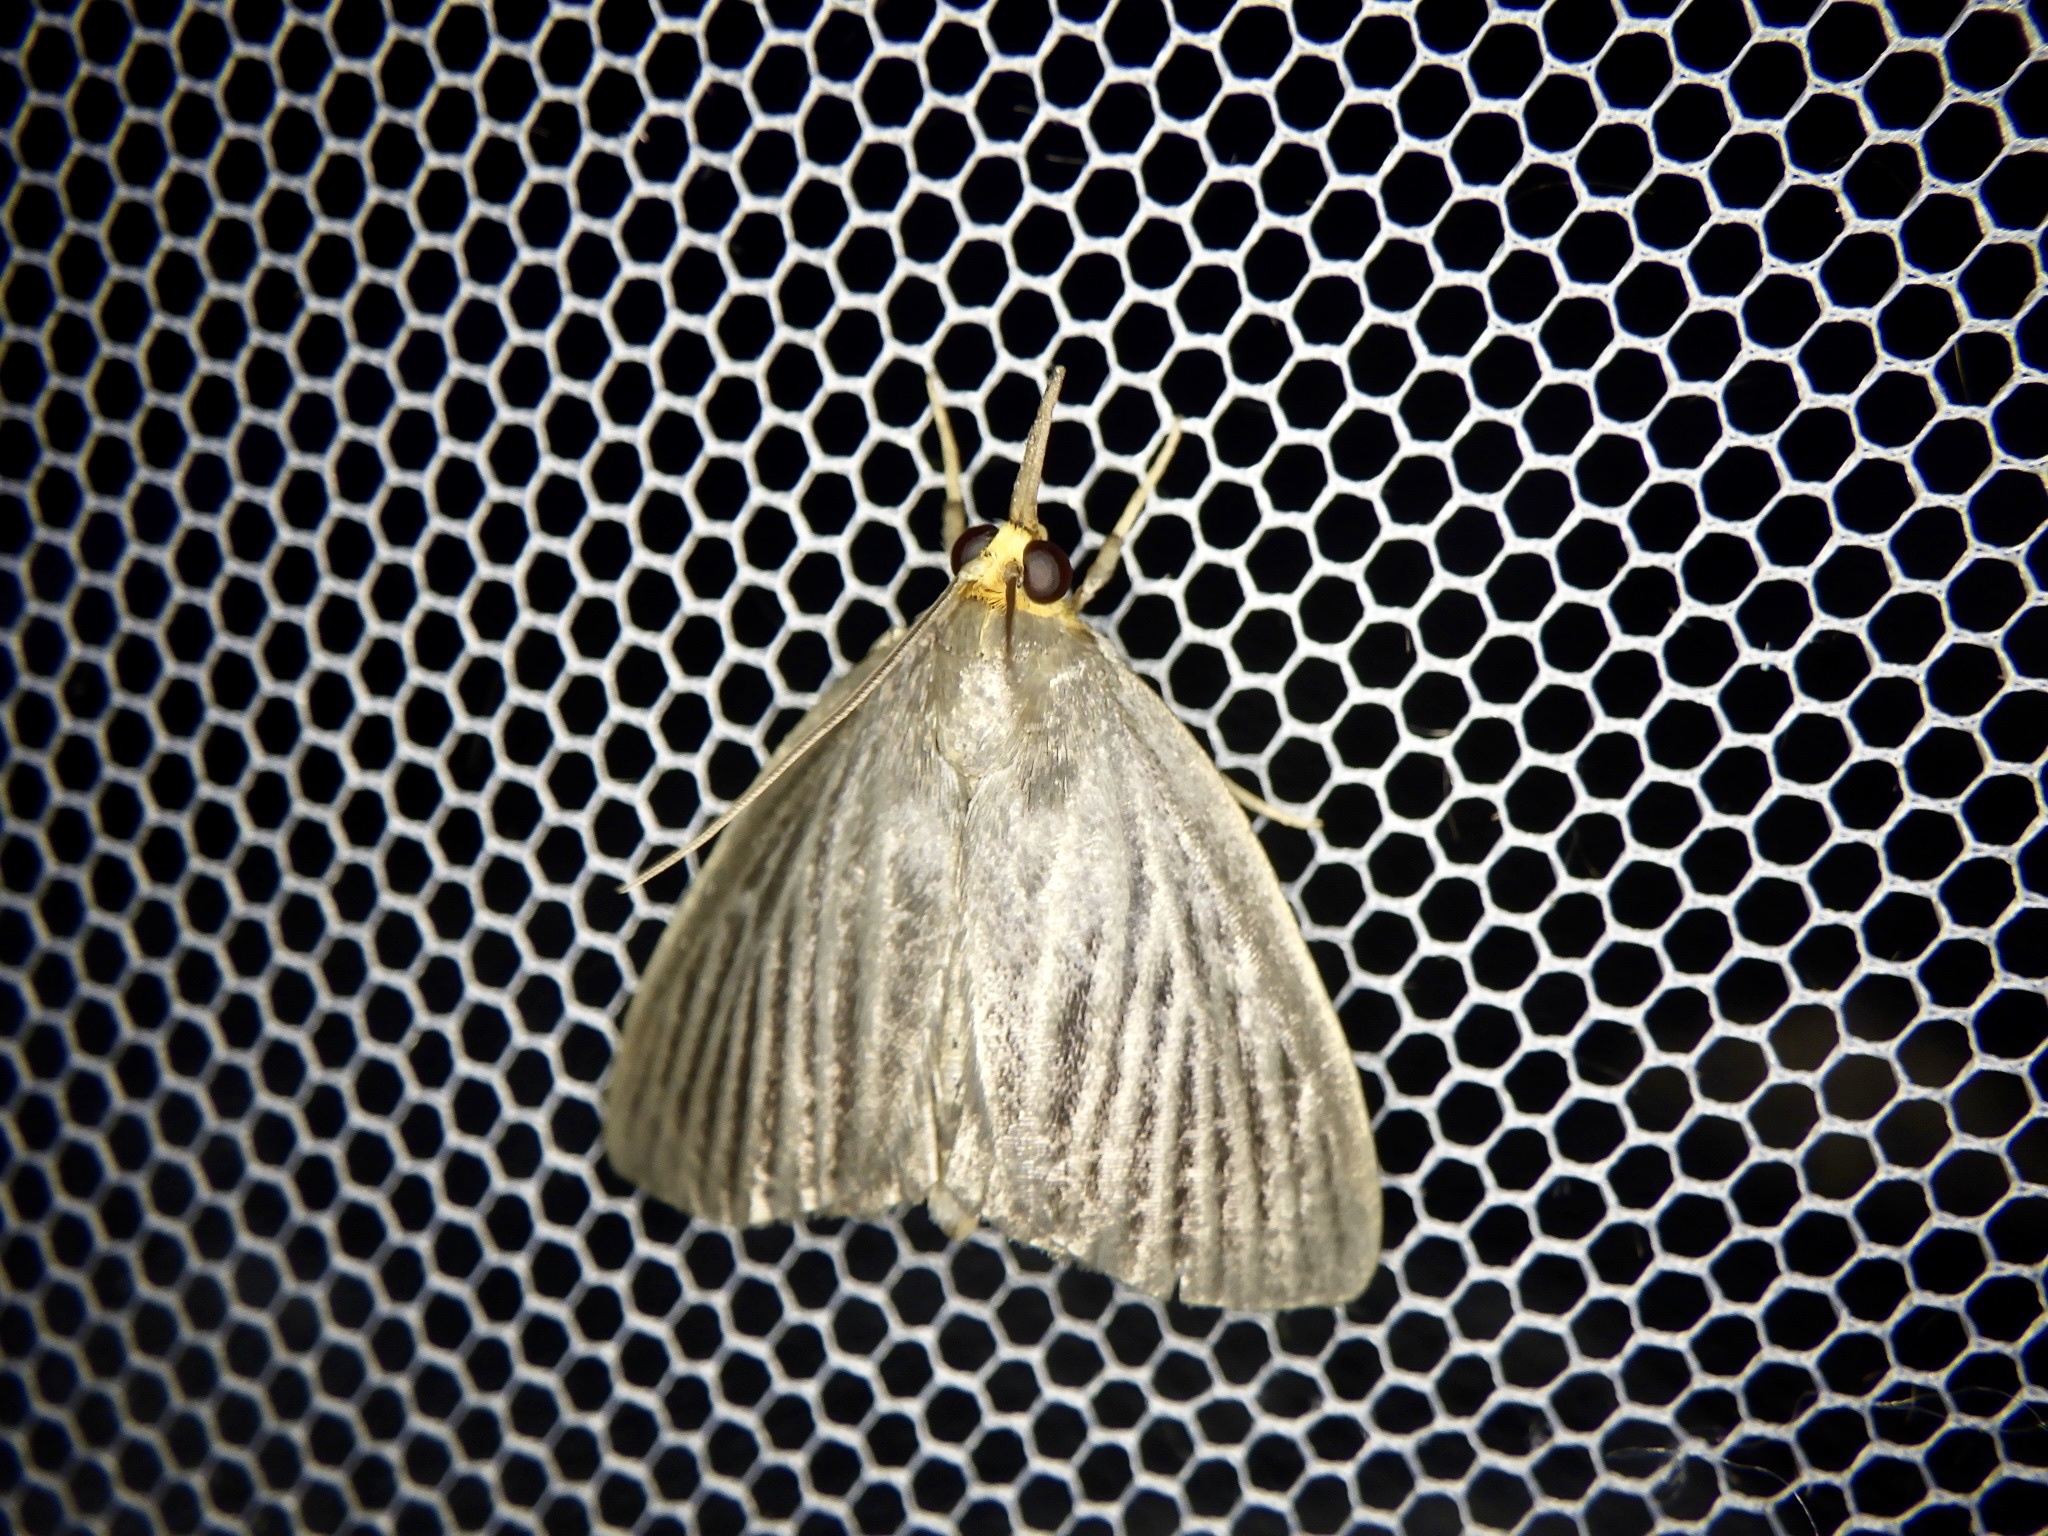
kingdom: Animalia
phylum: Arthropoda
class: Insecta
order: Lepidoptera
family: Pyralidae
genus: Trebania
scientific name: Trebania flavifrontalis
